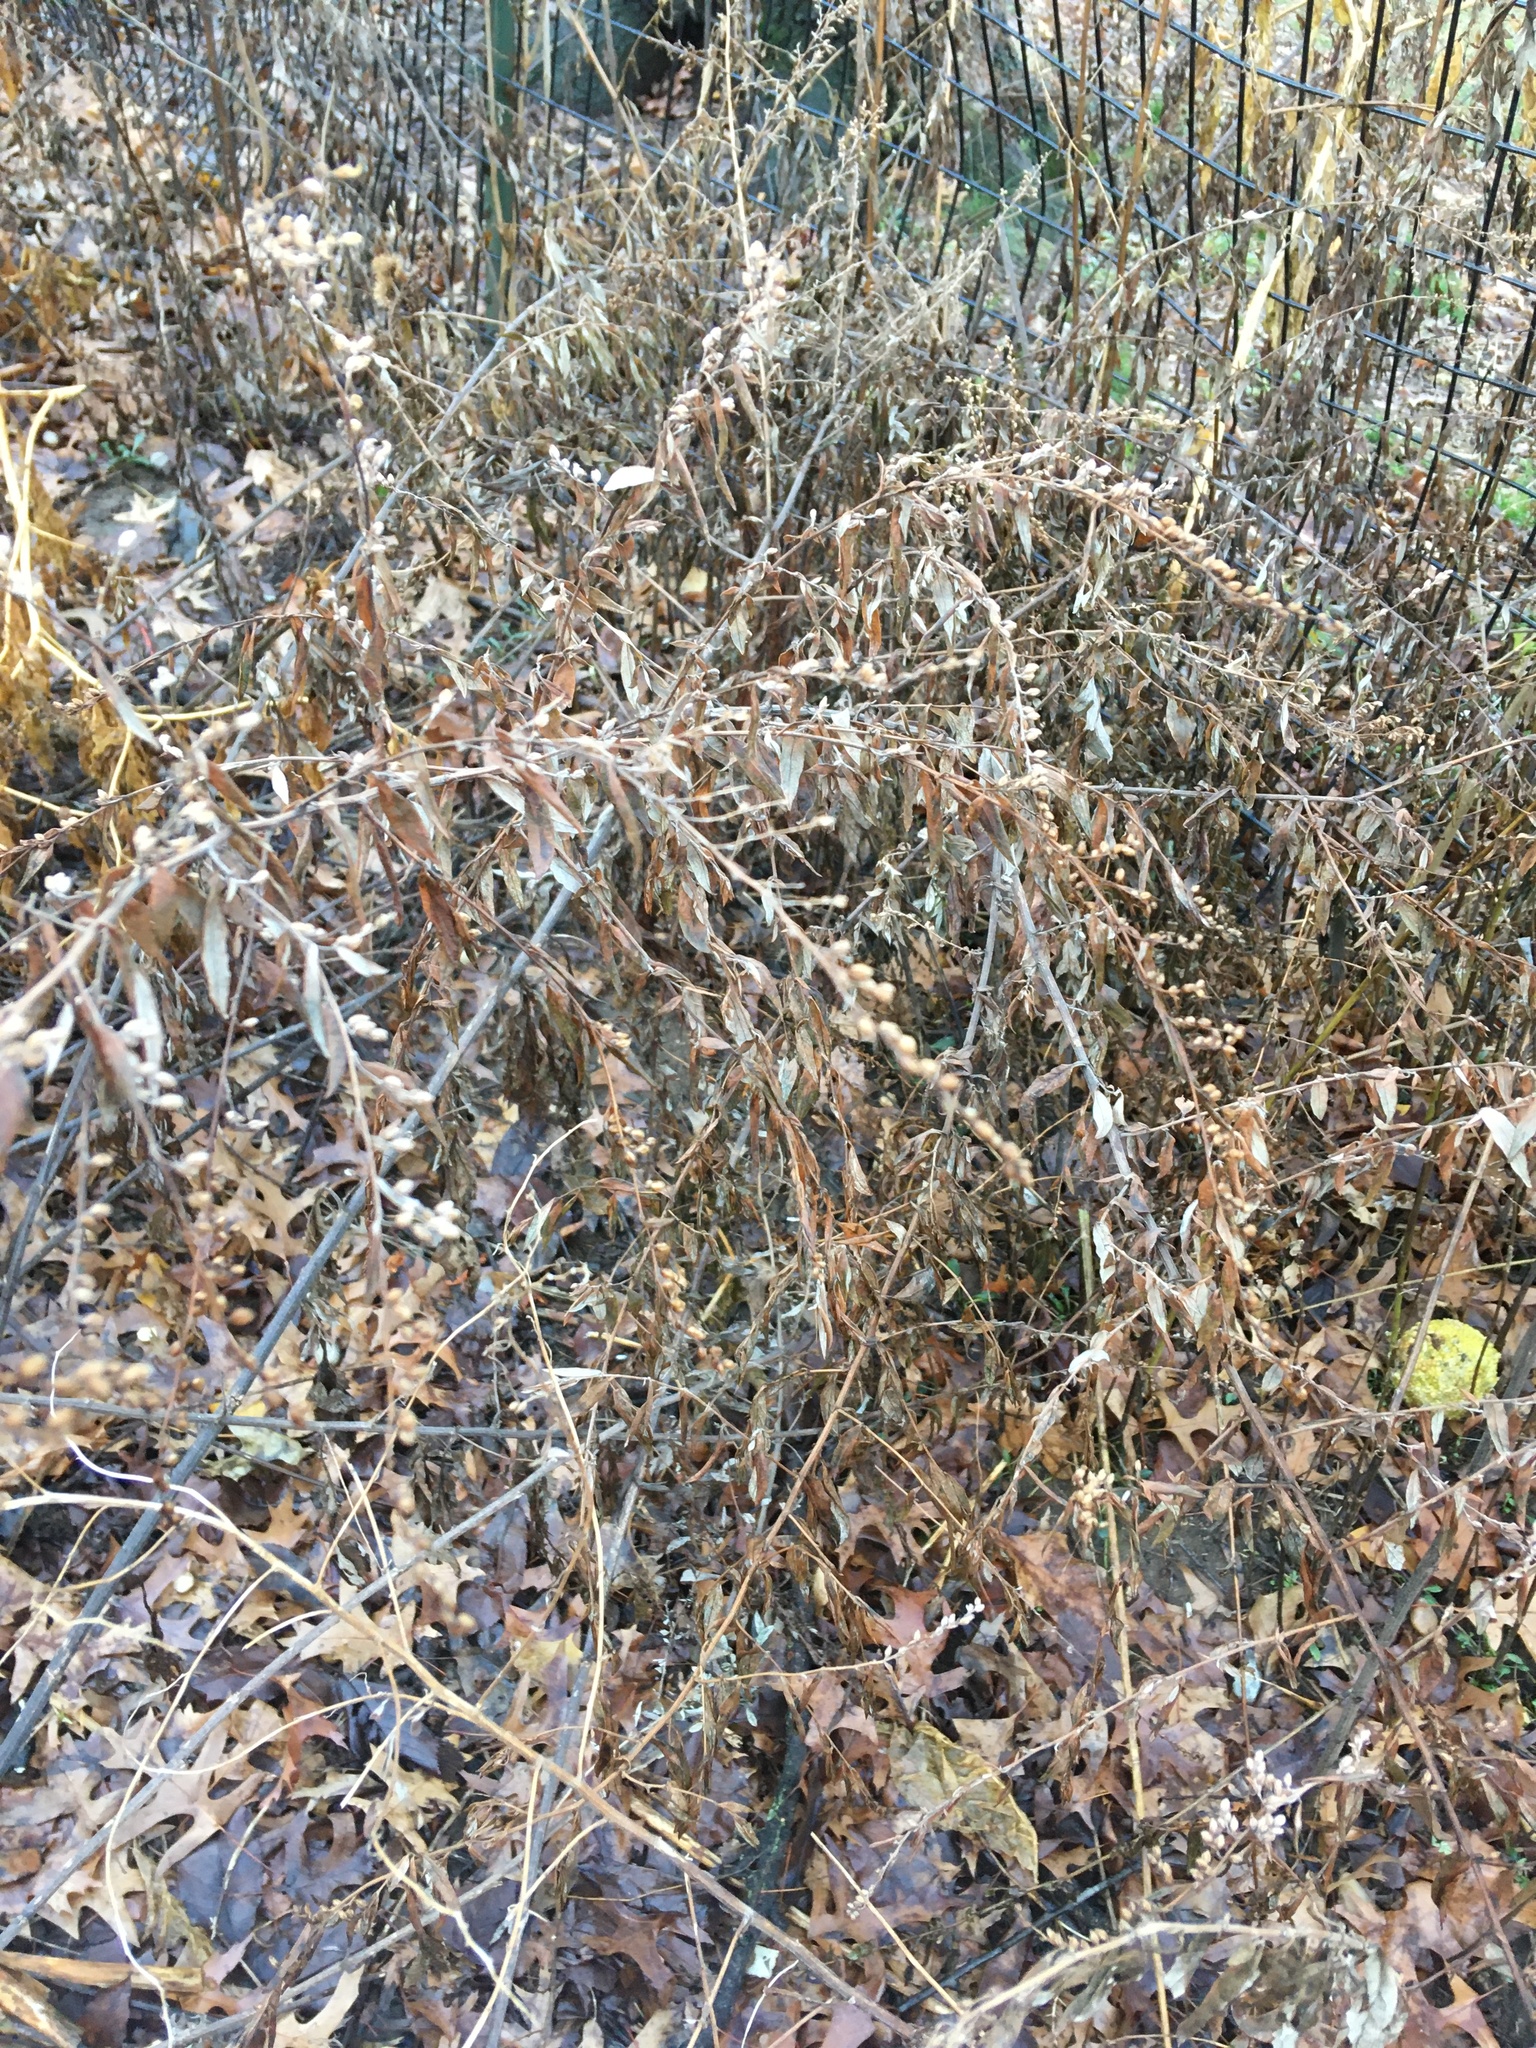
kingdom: Plantae
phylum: Tracheophyta
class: Magnoliopsida
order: Asterales
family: Asteraceae
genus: Artemisia
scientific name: Artemisia vulgaris
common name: Mugwort
